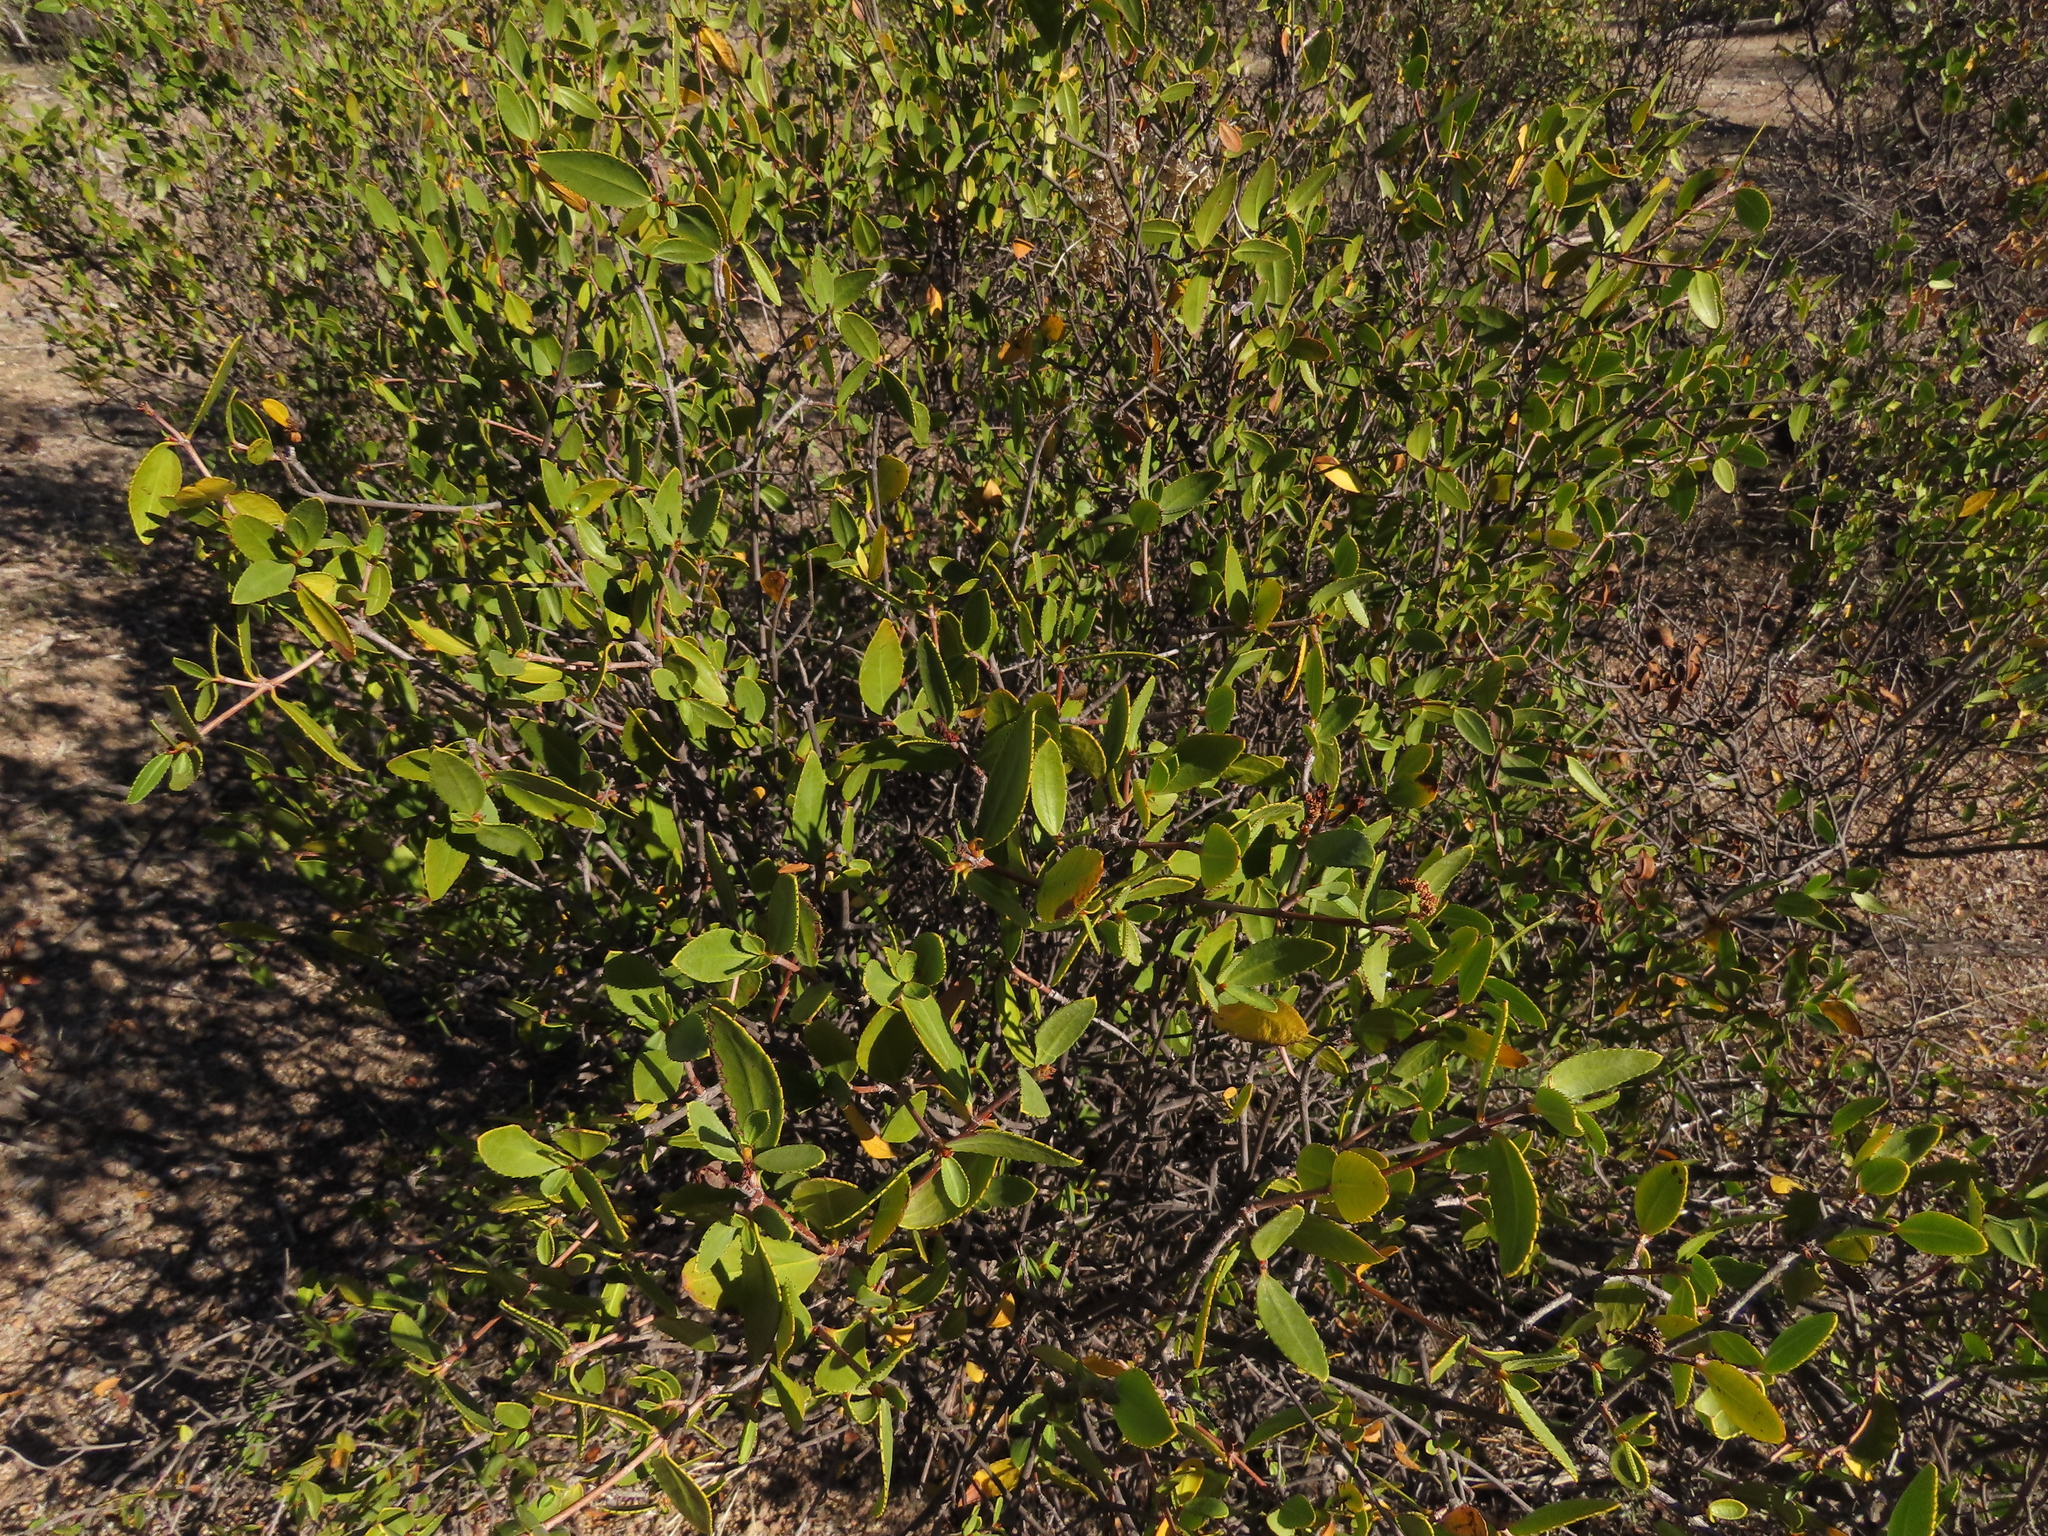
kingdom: Plantae
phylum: Tracheophyta
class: Magnoliopsida
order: Malpighiales
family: Euphorbiaceae
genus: Colliguaja
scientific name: Colliguaja odorifera
